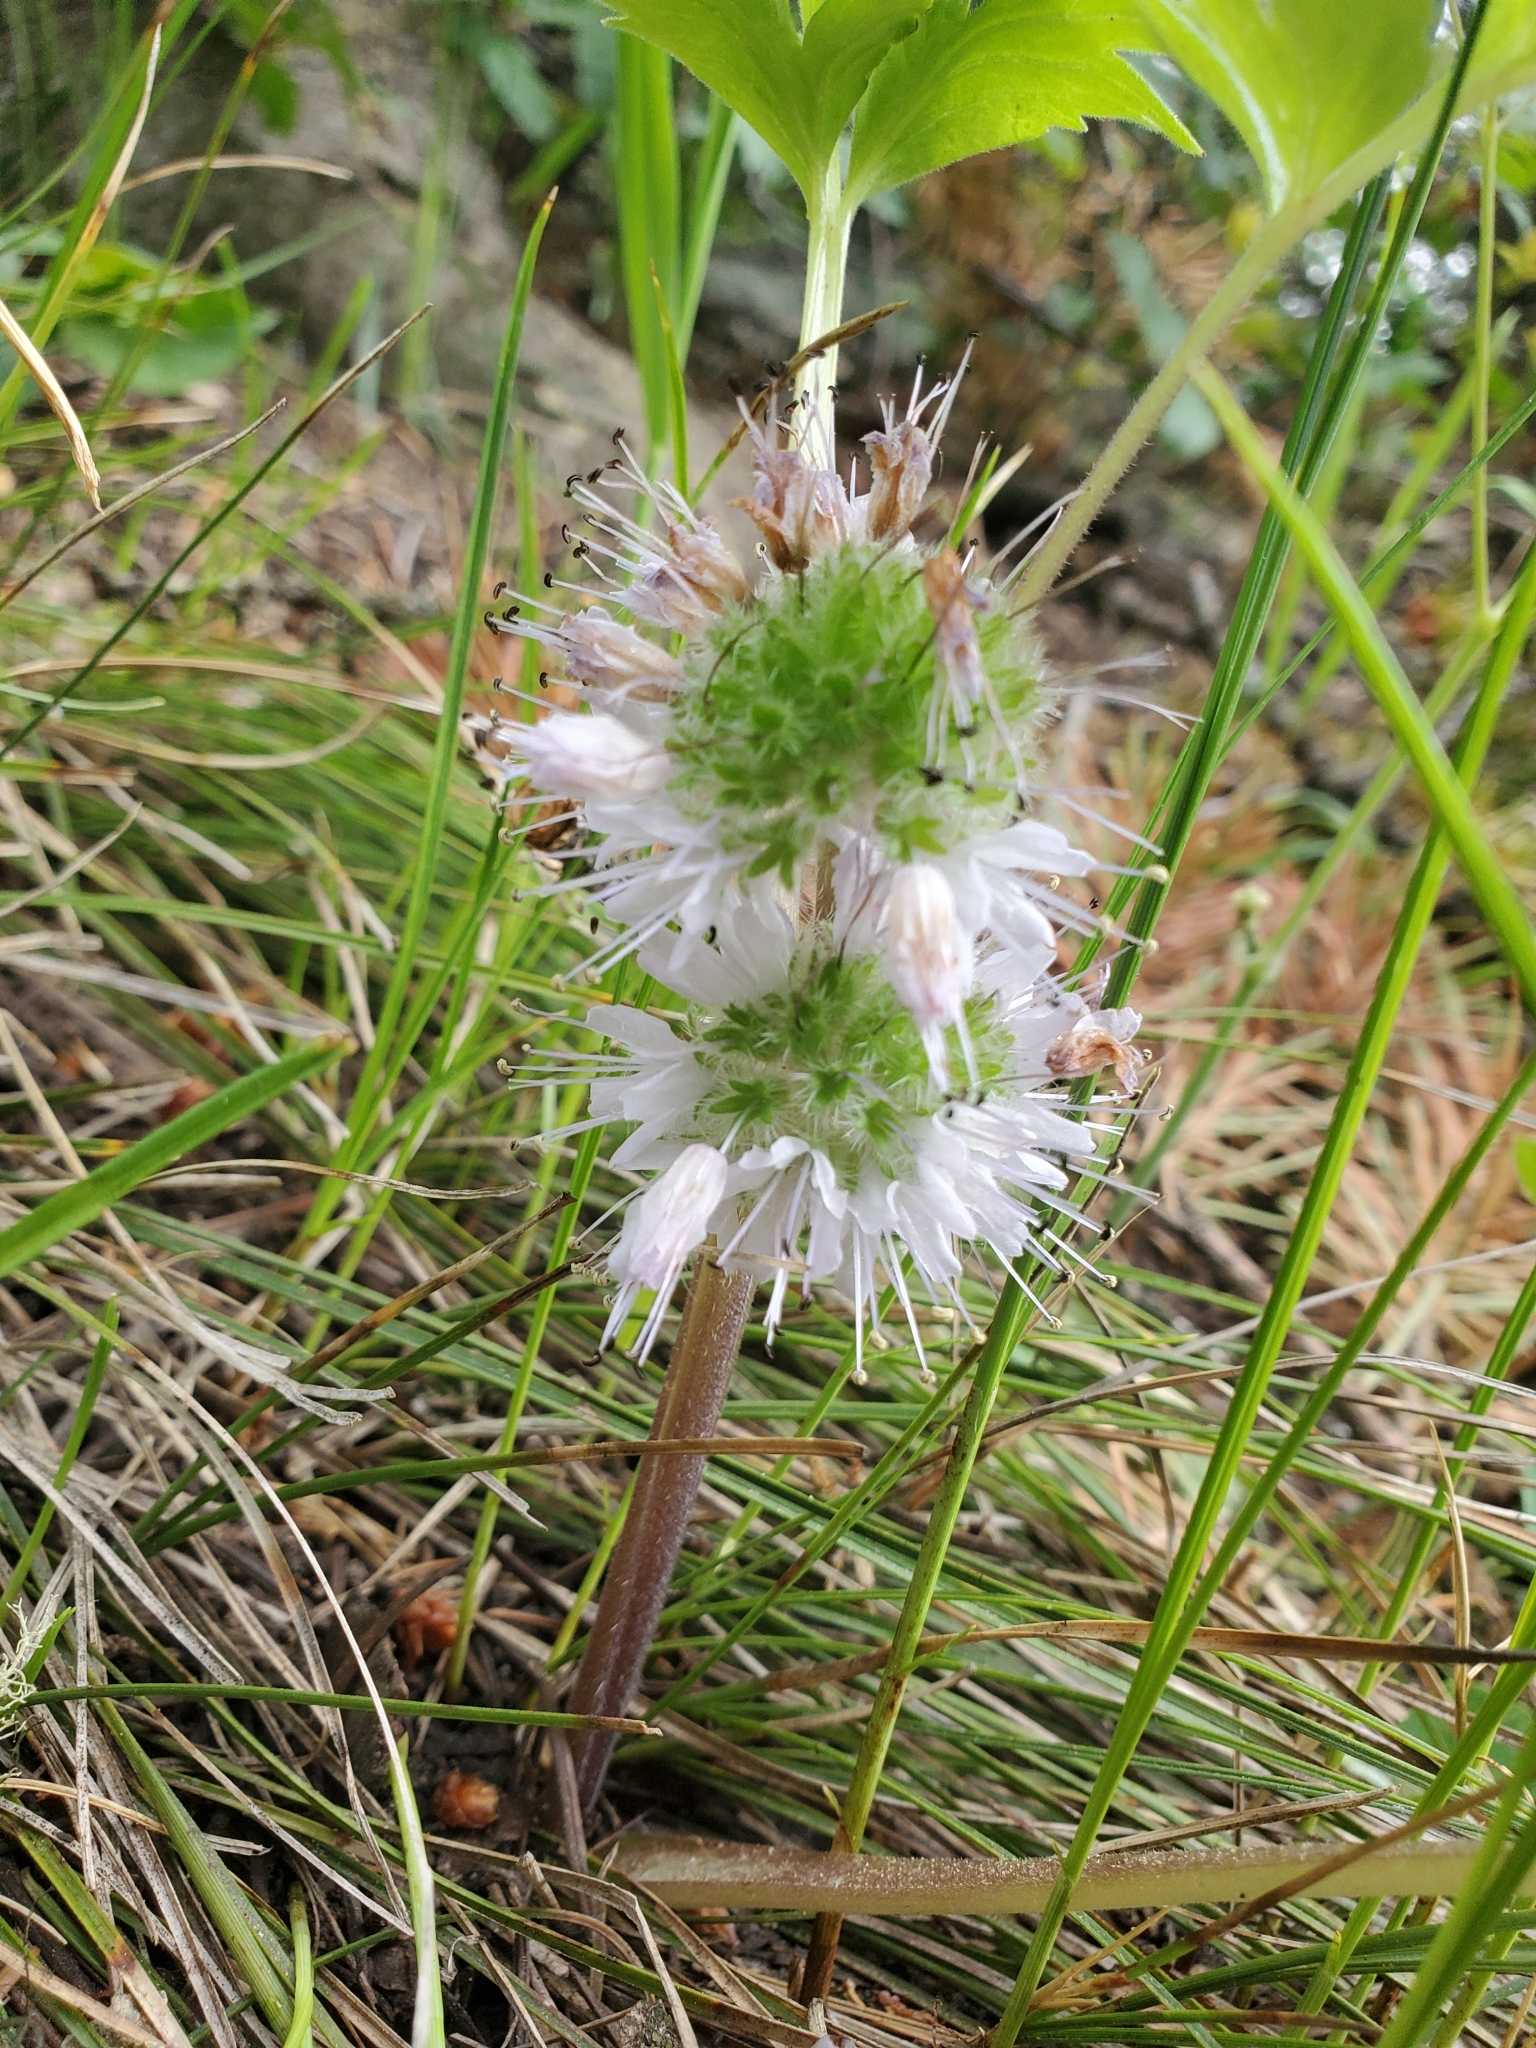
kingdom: Plantae
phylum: Tracheophyta
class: Magnoliopsida
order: Boraginales
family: Hydrophyllaceae
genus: Hydrophyllum
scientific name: Hydrophyllum capitatum
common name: Woollen-breeches
